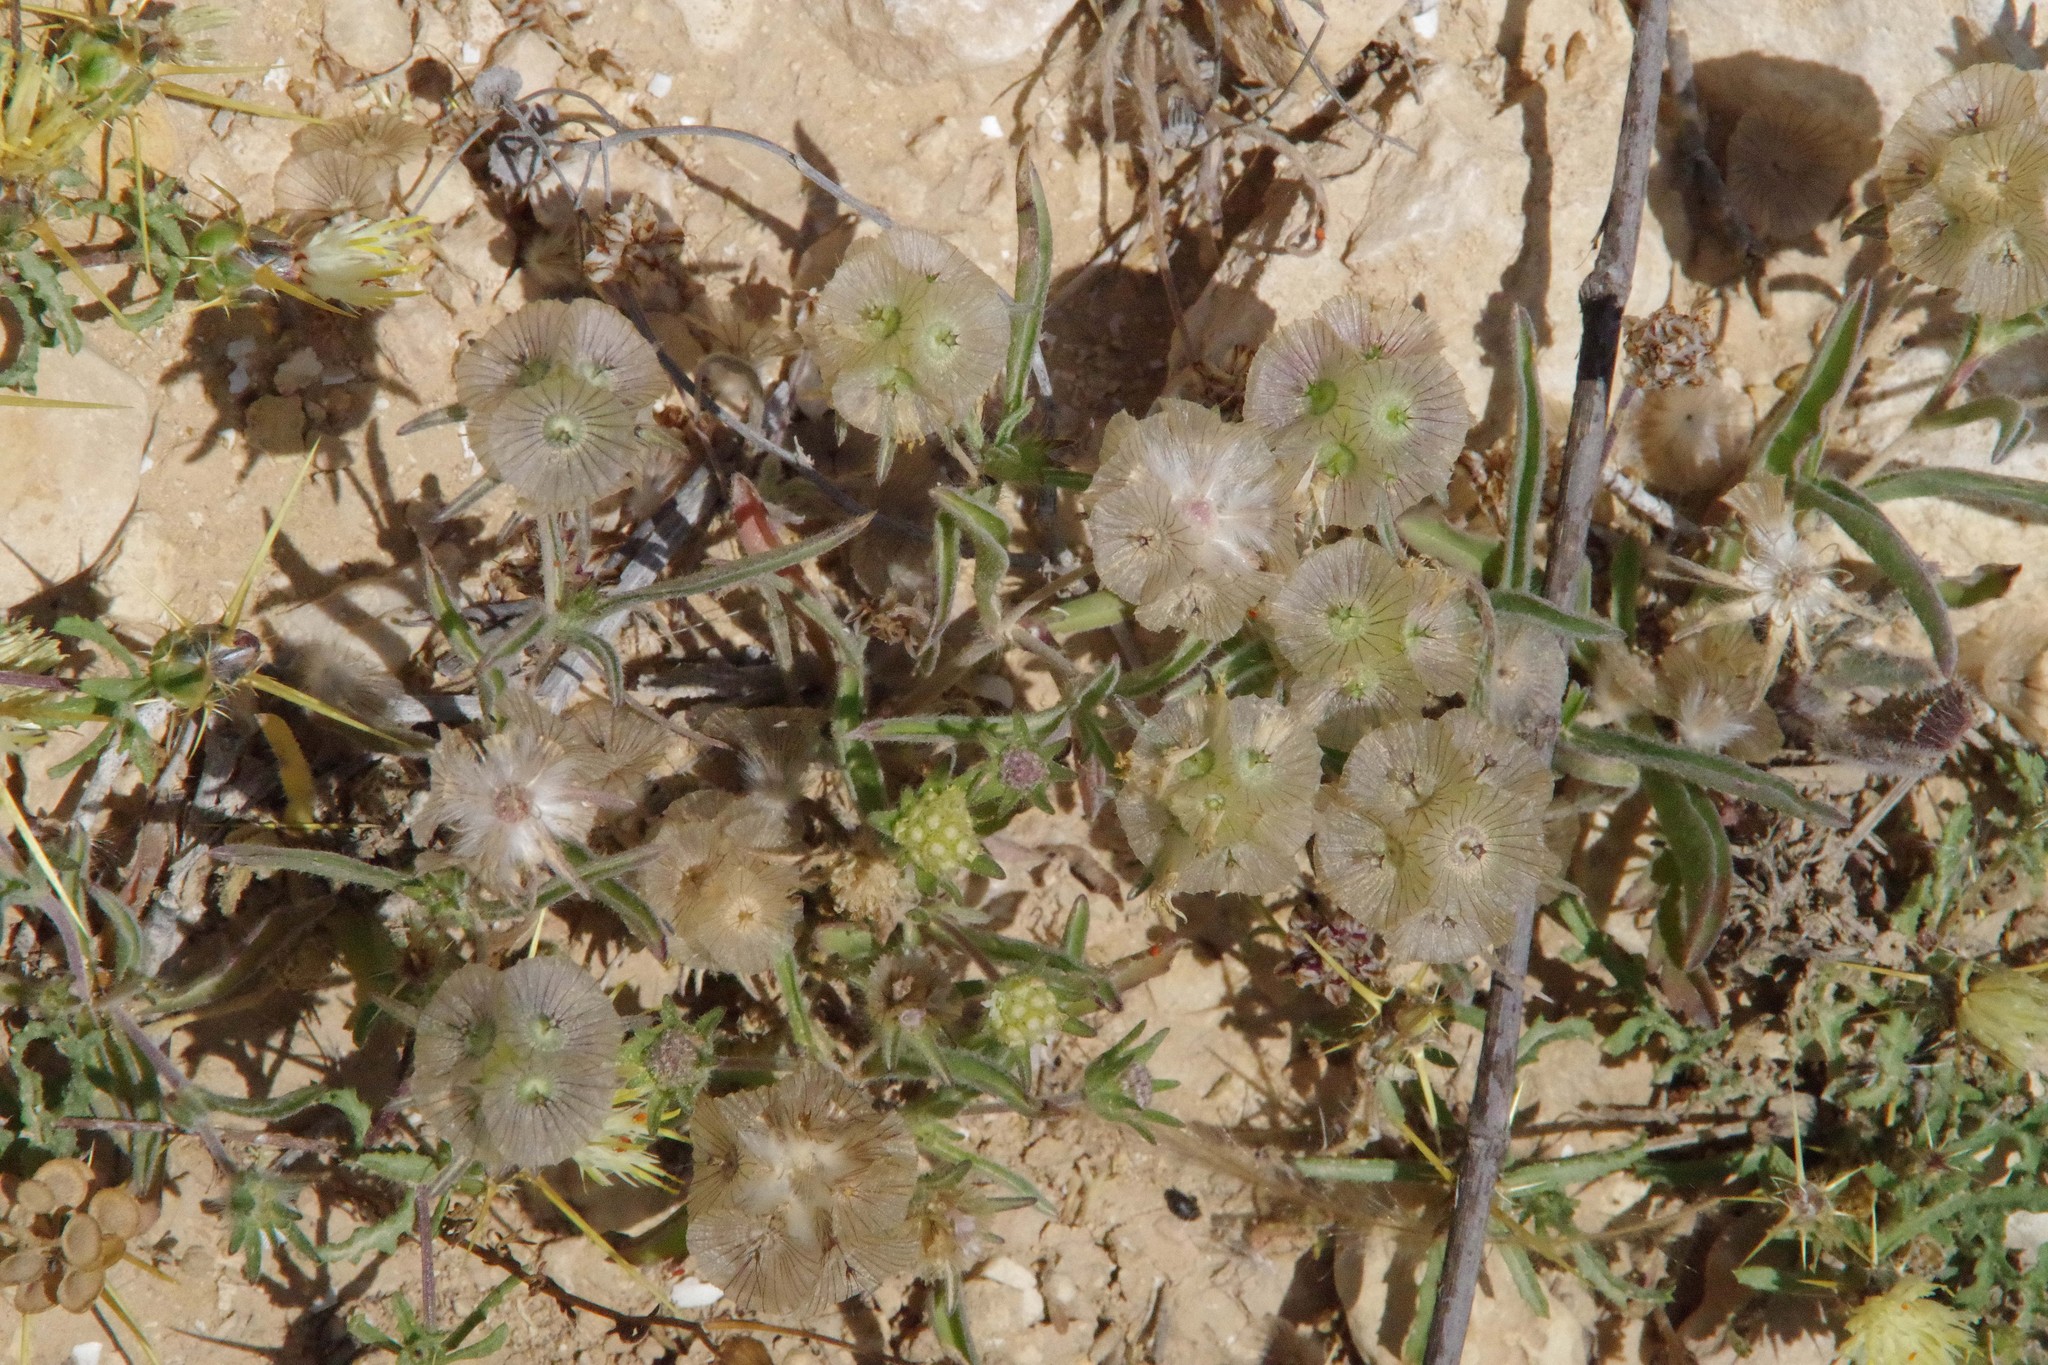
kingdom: Plantae
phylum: Tracheophyta
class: Magnoliopsida
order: Dipsacales
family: Caprifoliaceae
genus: Lomelosia
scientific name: Lomelosia porphyroneura
